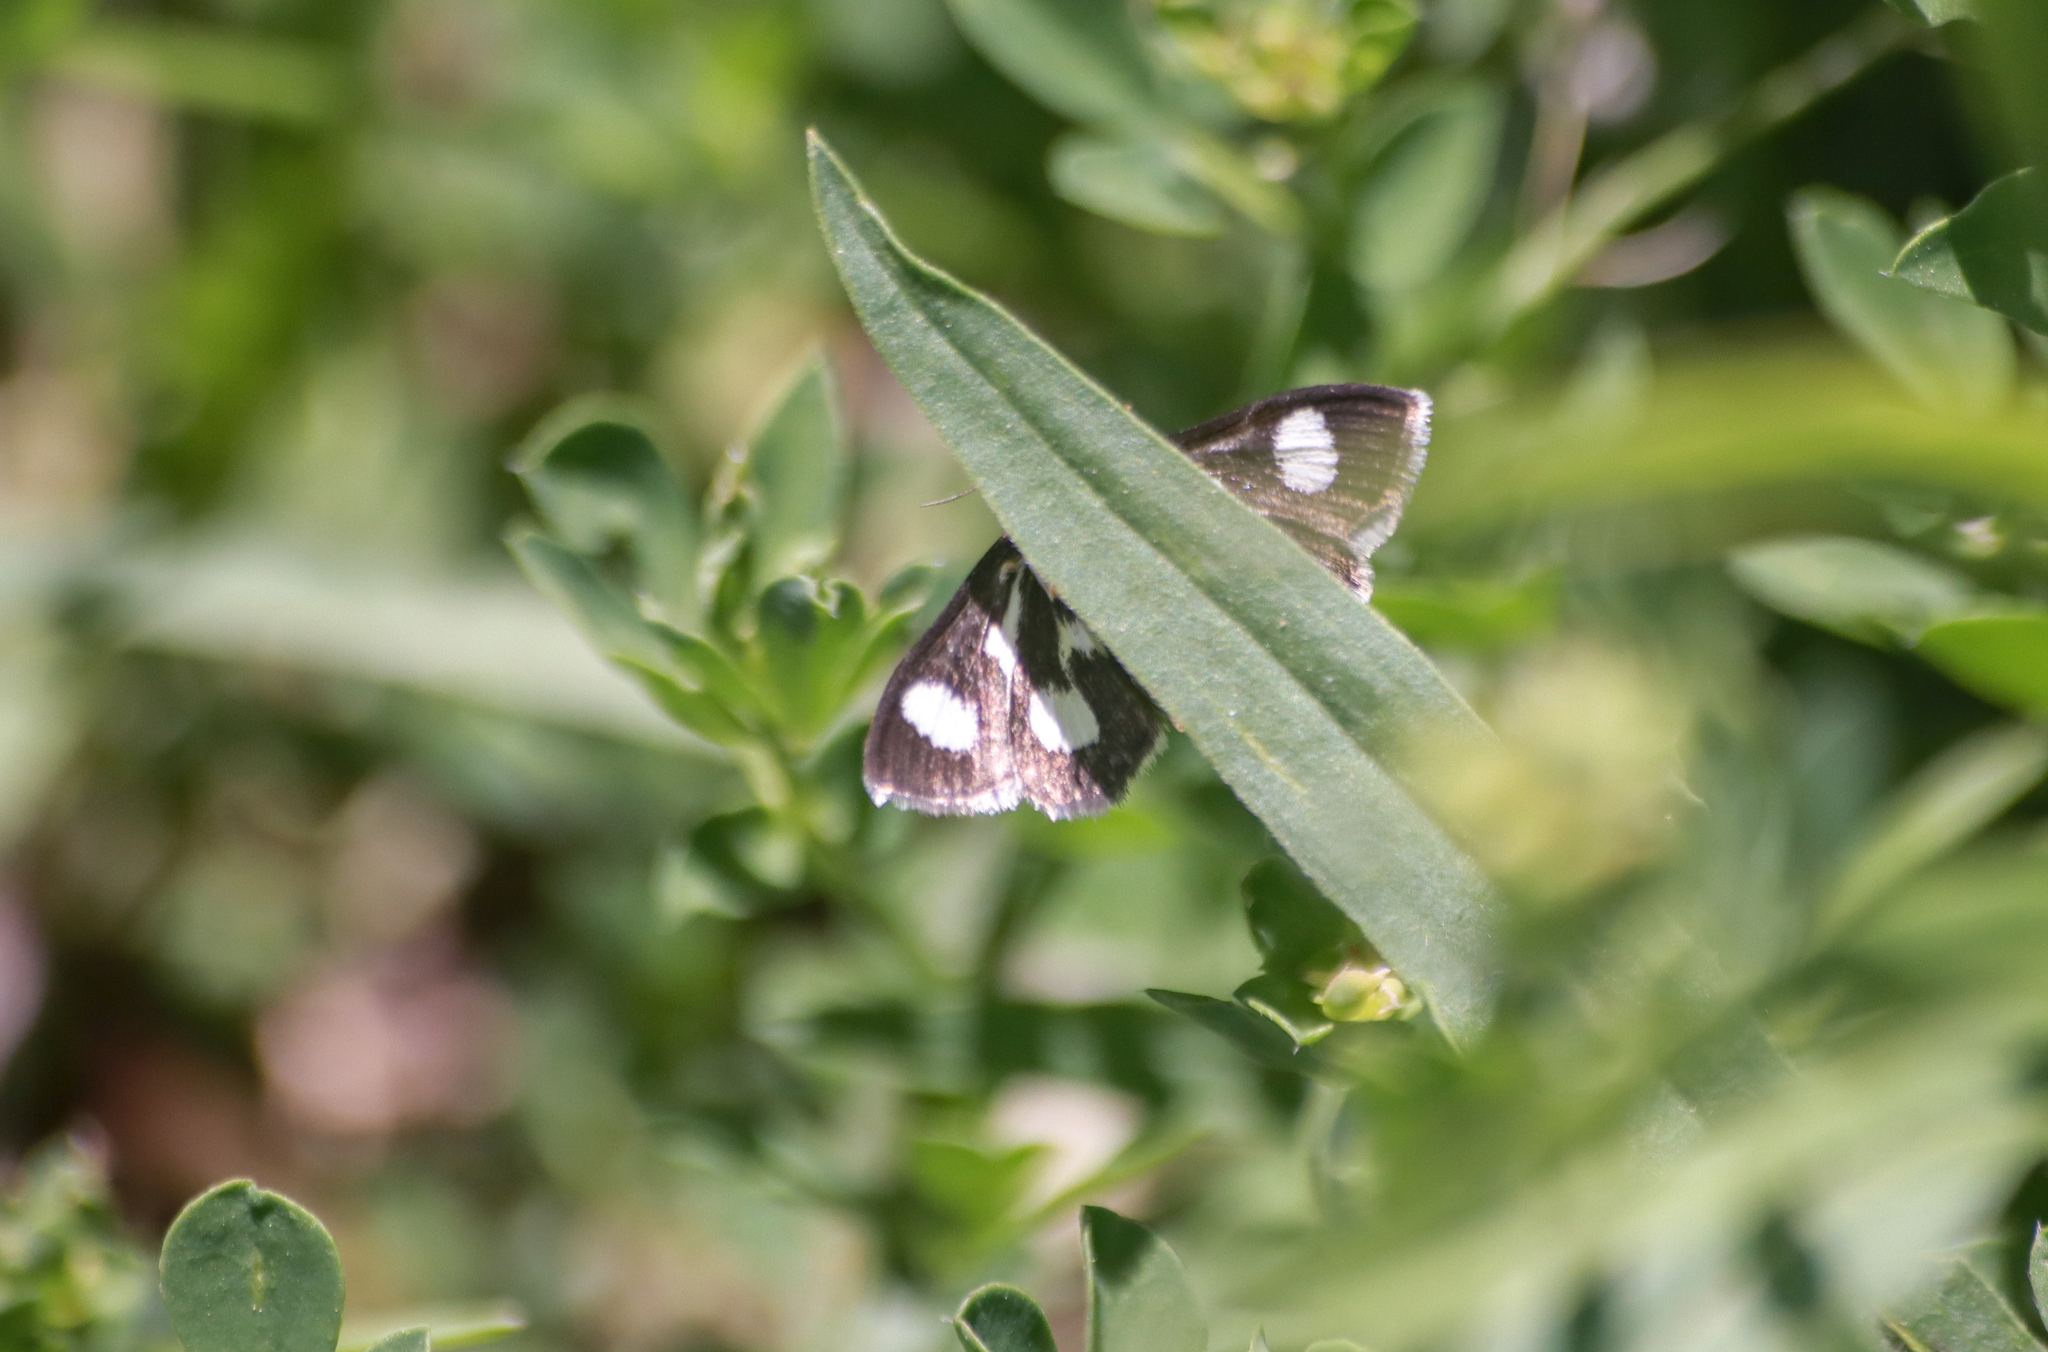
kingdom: Animalia
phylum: Arthropoda
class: Insecta
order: Lepidoptera
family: Crambidae
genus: Anania
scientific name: Anania funebris
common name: White-spotted sable moth
